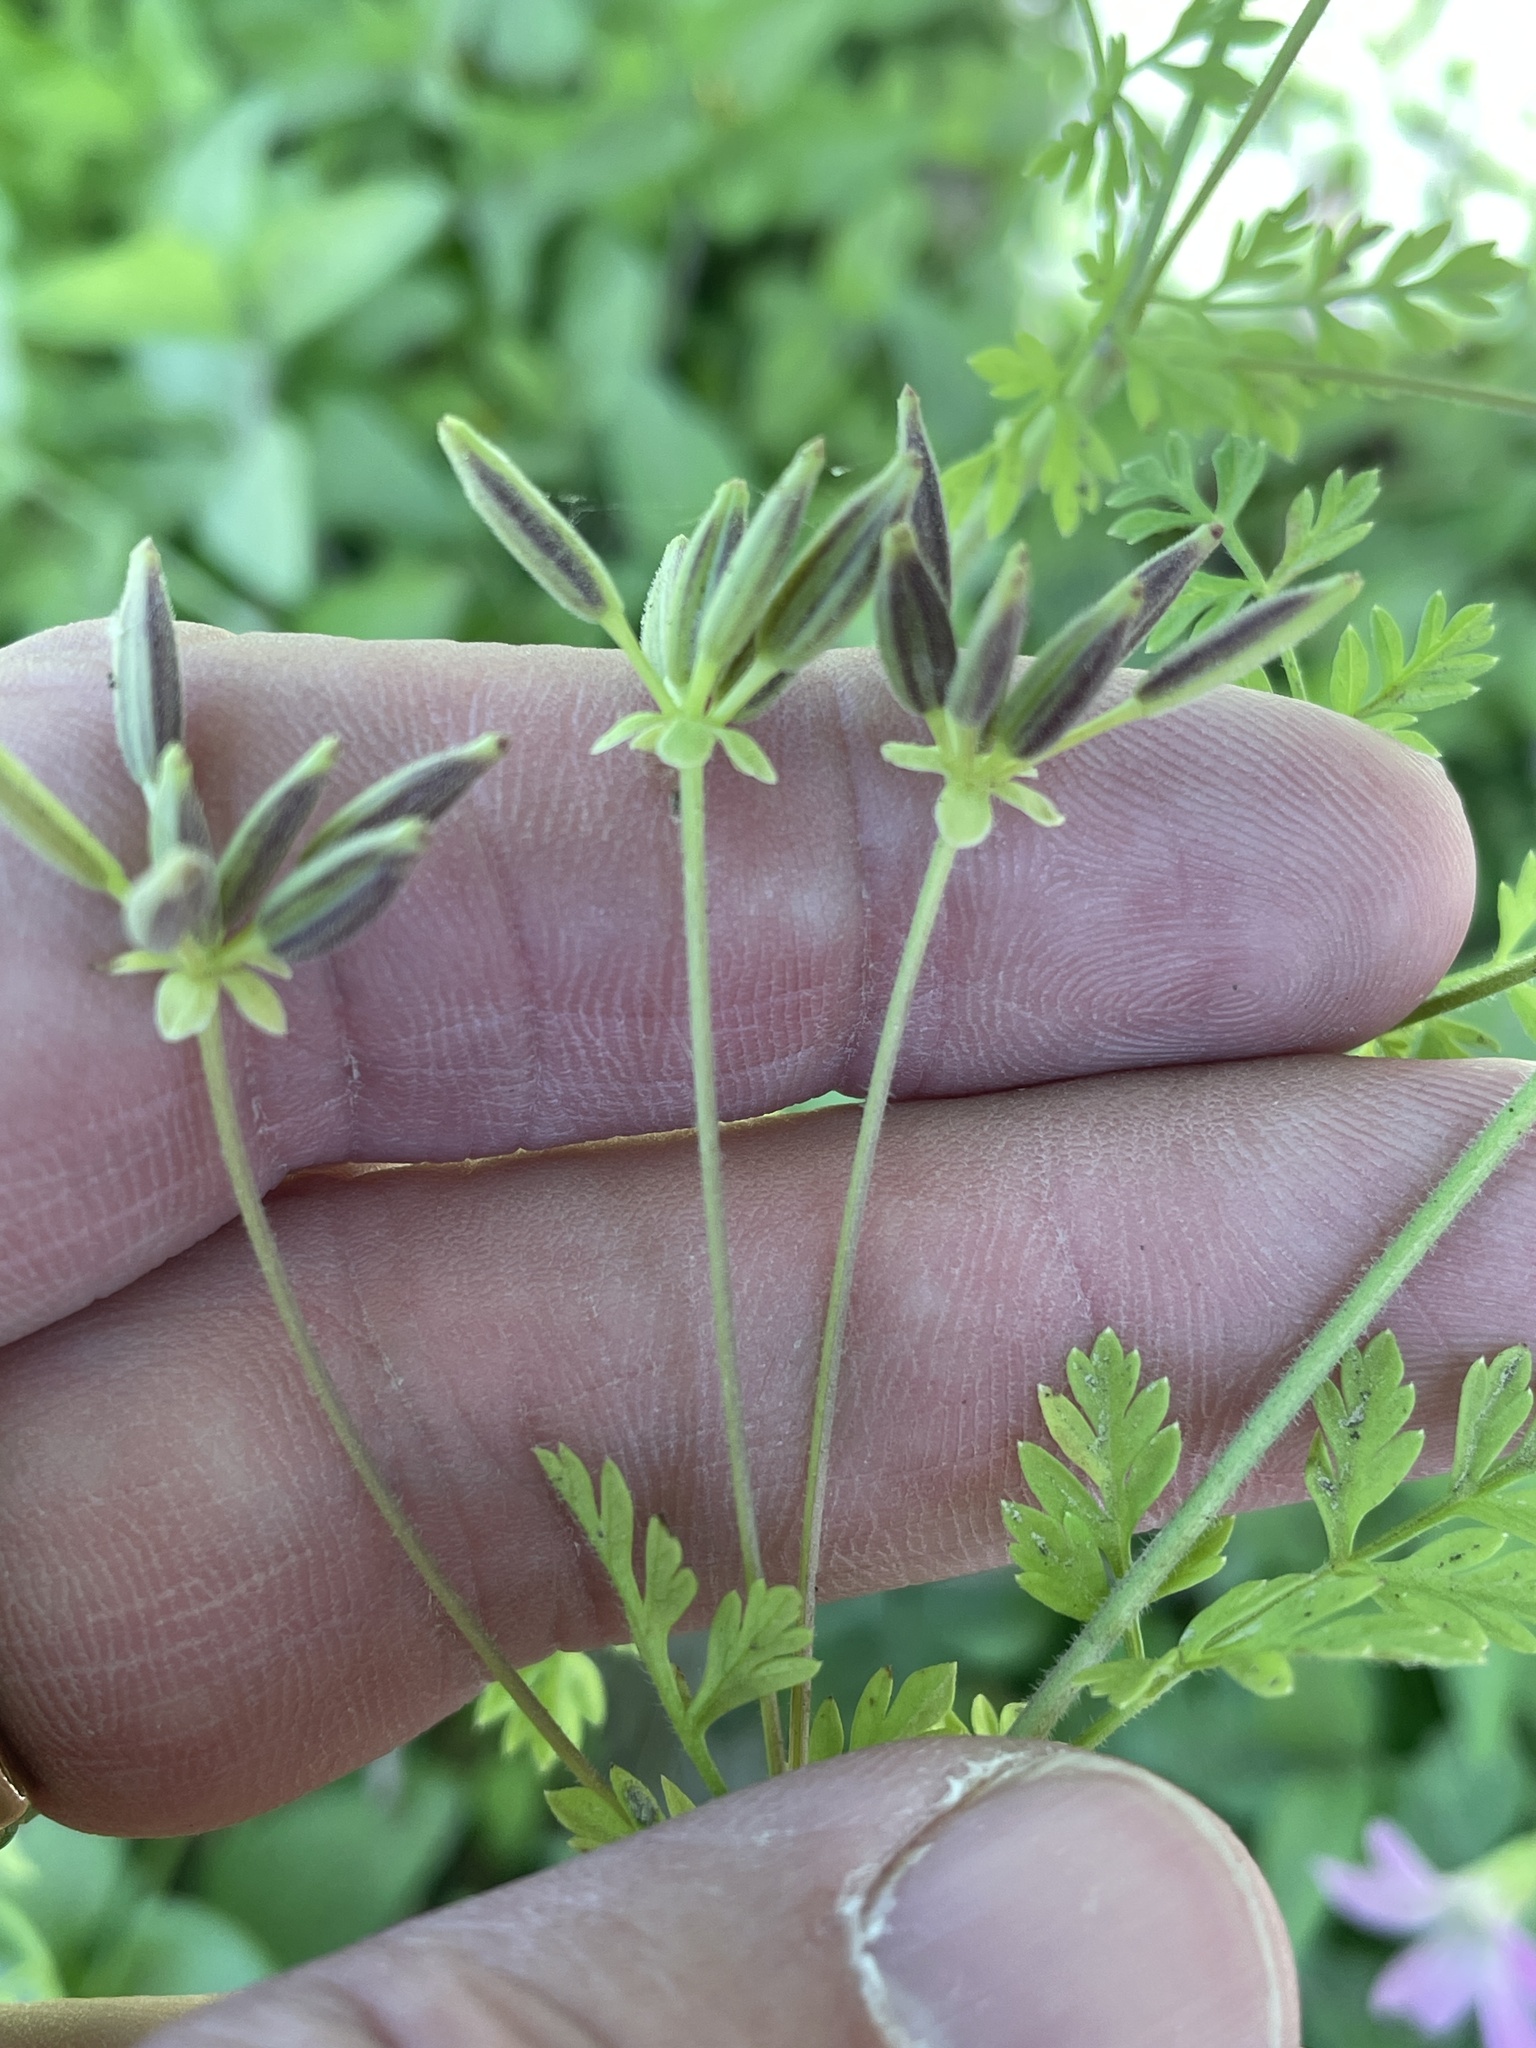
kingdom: Plantae
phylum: Tracheophyta
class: Magnoliopsida
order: Apiales
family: Apiaceae
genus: Chaerophyllum
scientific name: Chaerophyllum tainturieri
